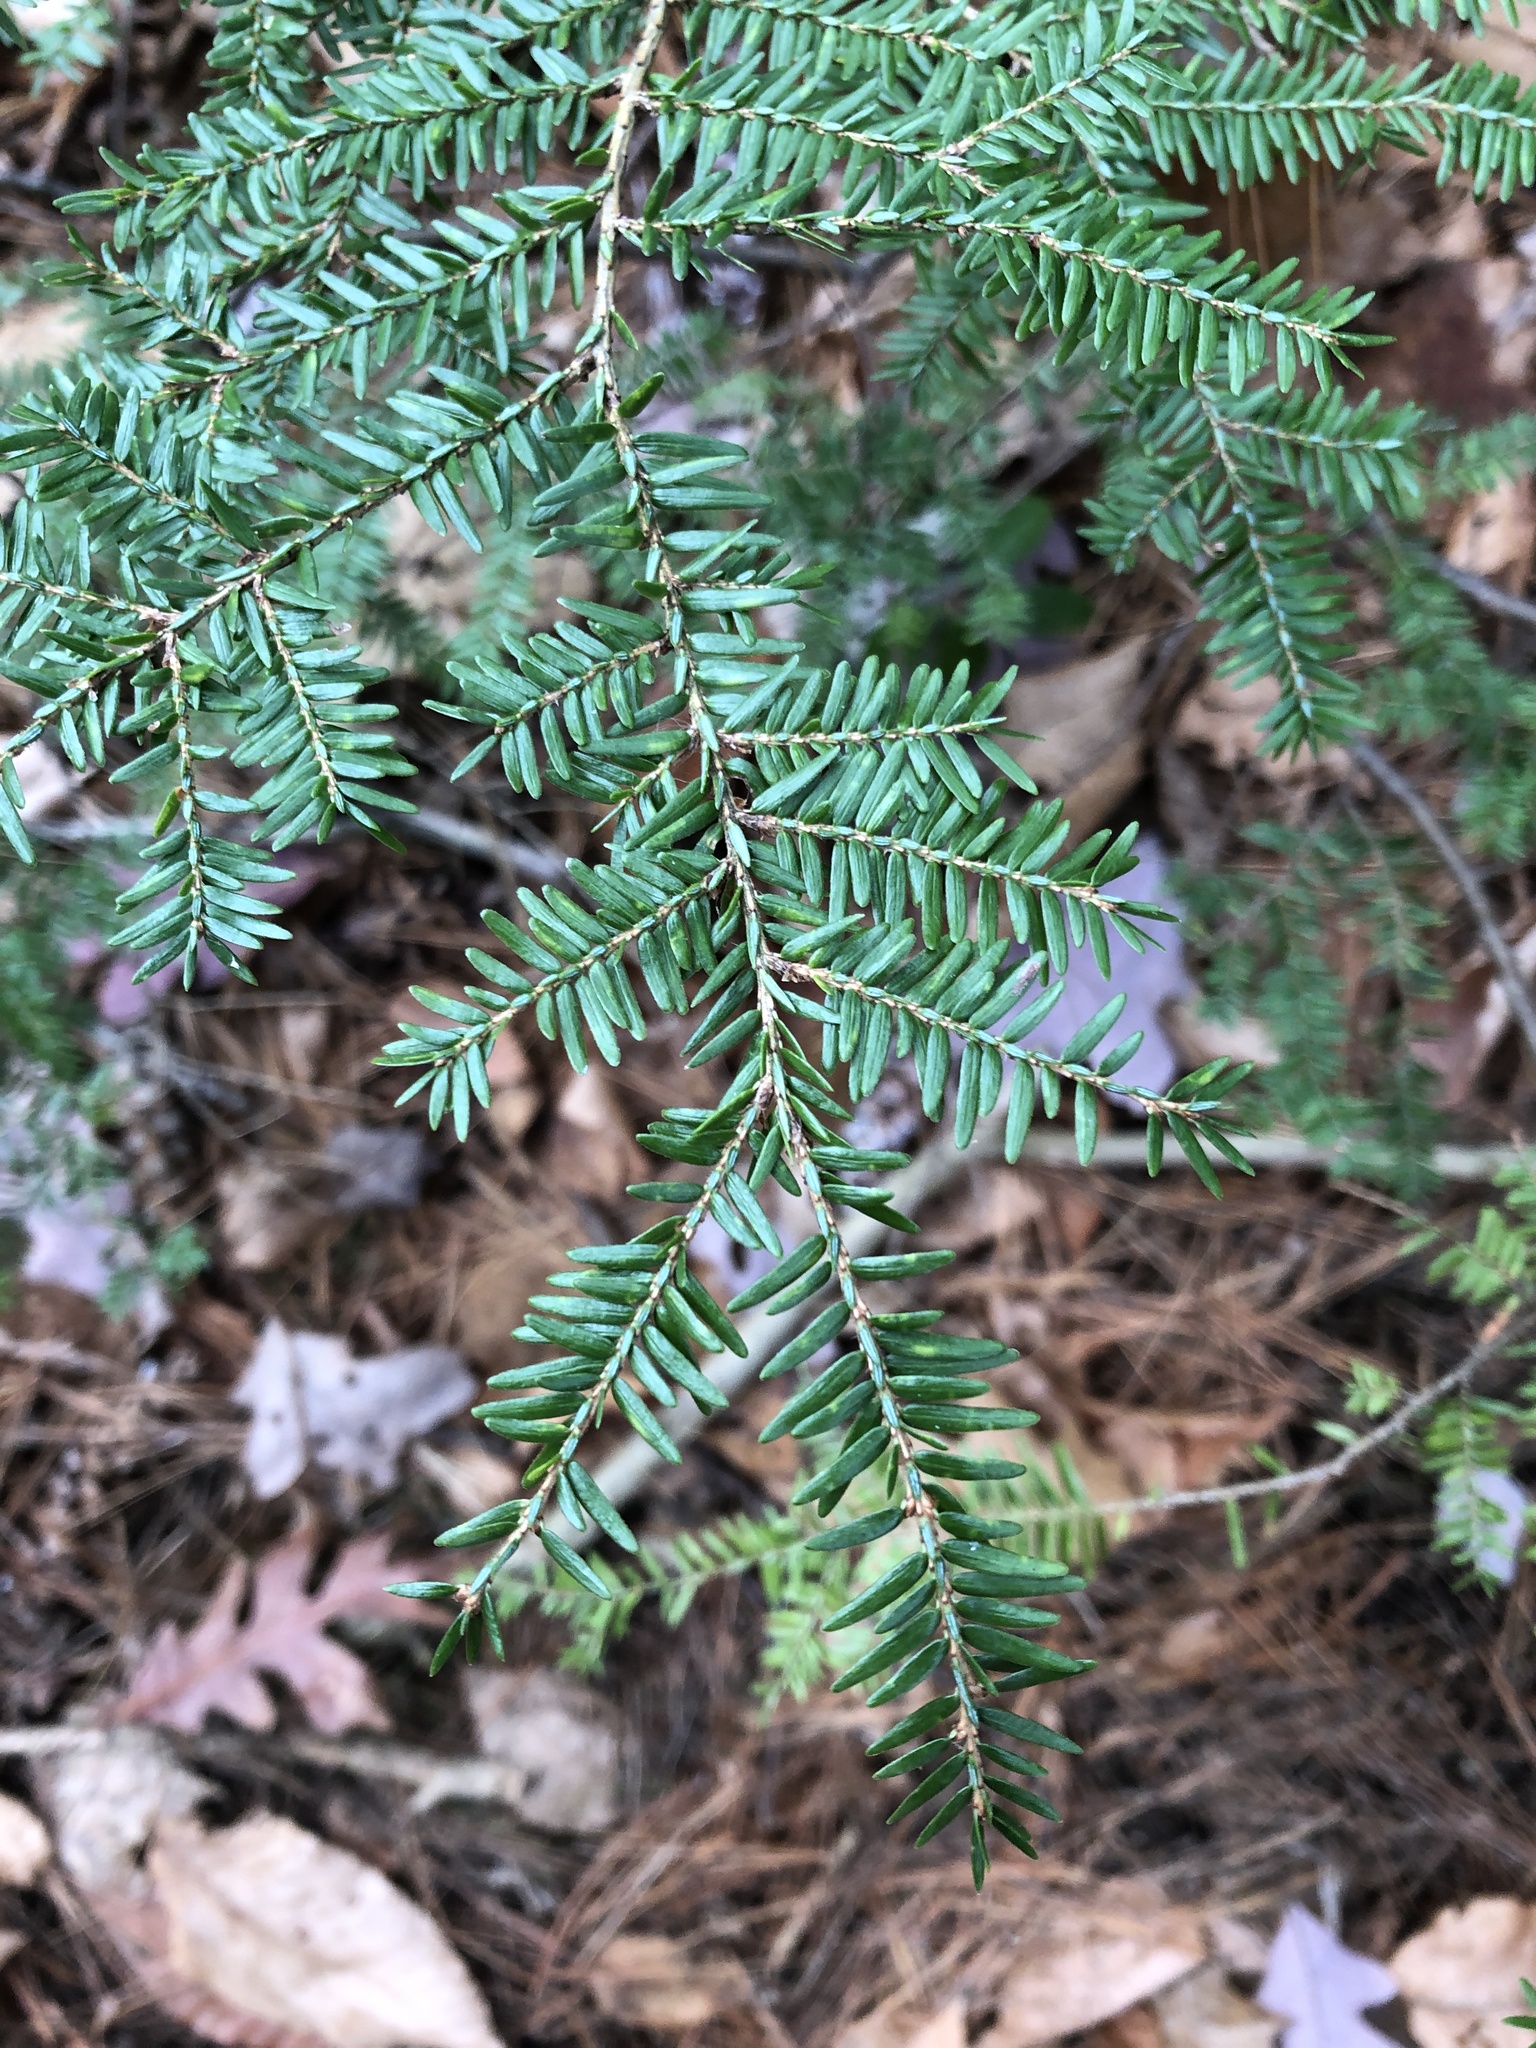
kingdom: Plantae
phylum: Tracheophyta
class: Pinopsida
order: Pinales
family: Pinaceae
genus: Tsuga
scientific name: Tsuga canadensis
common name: Eastern hemlock
